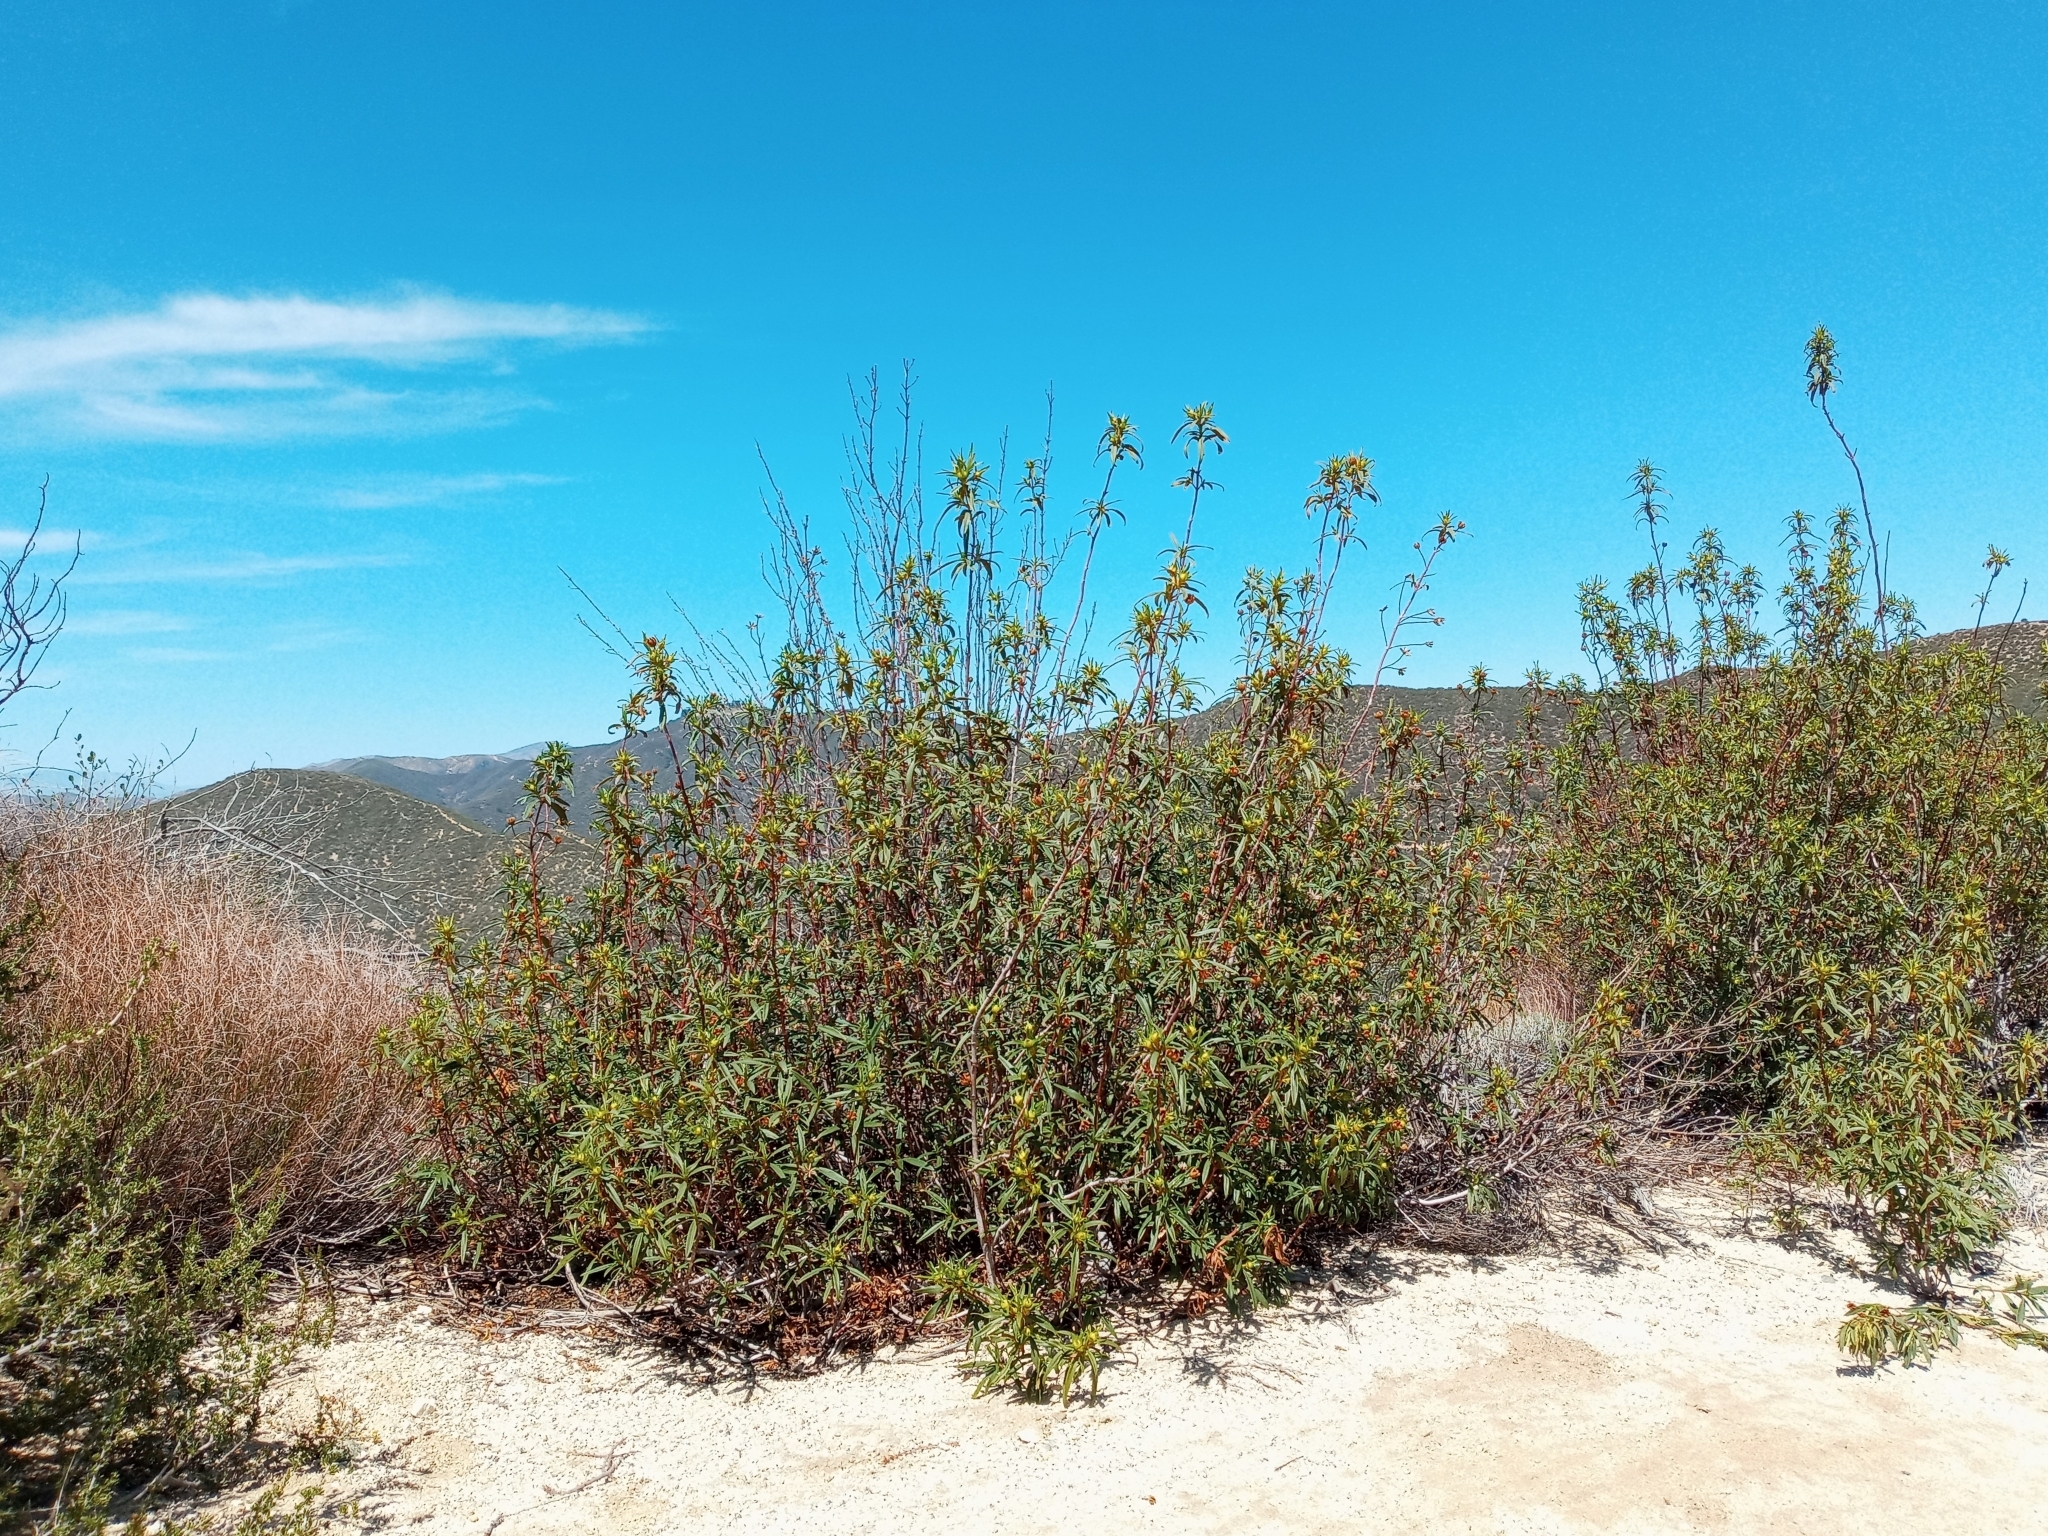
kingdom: Plantae
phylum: Tracheophyta
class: Magnoliopsida
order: Malvales
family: Cistaceae
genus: Cistus
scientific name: Cistus ladanifer
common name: Common gum cistus
